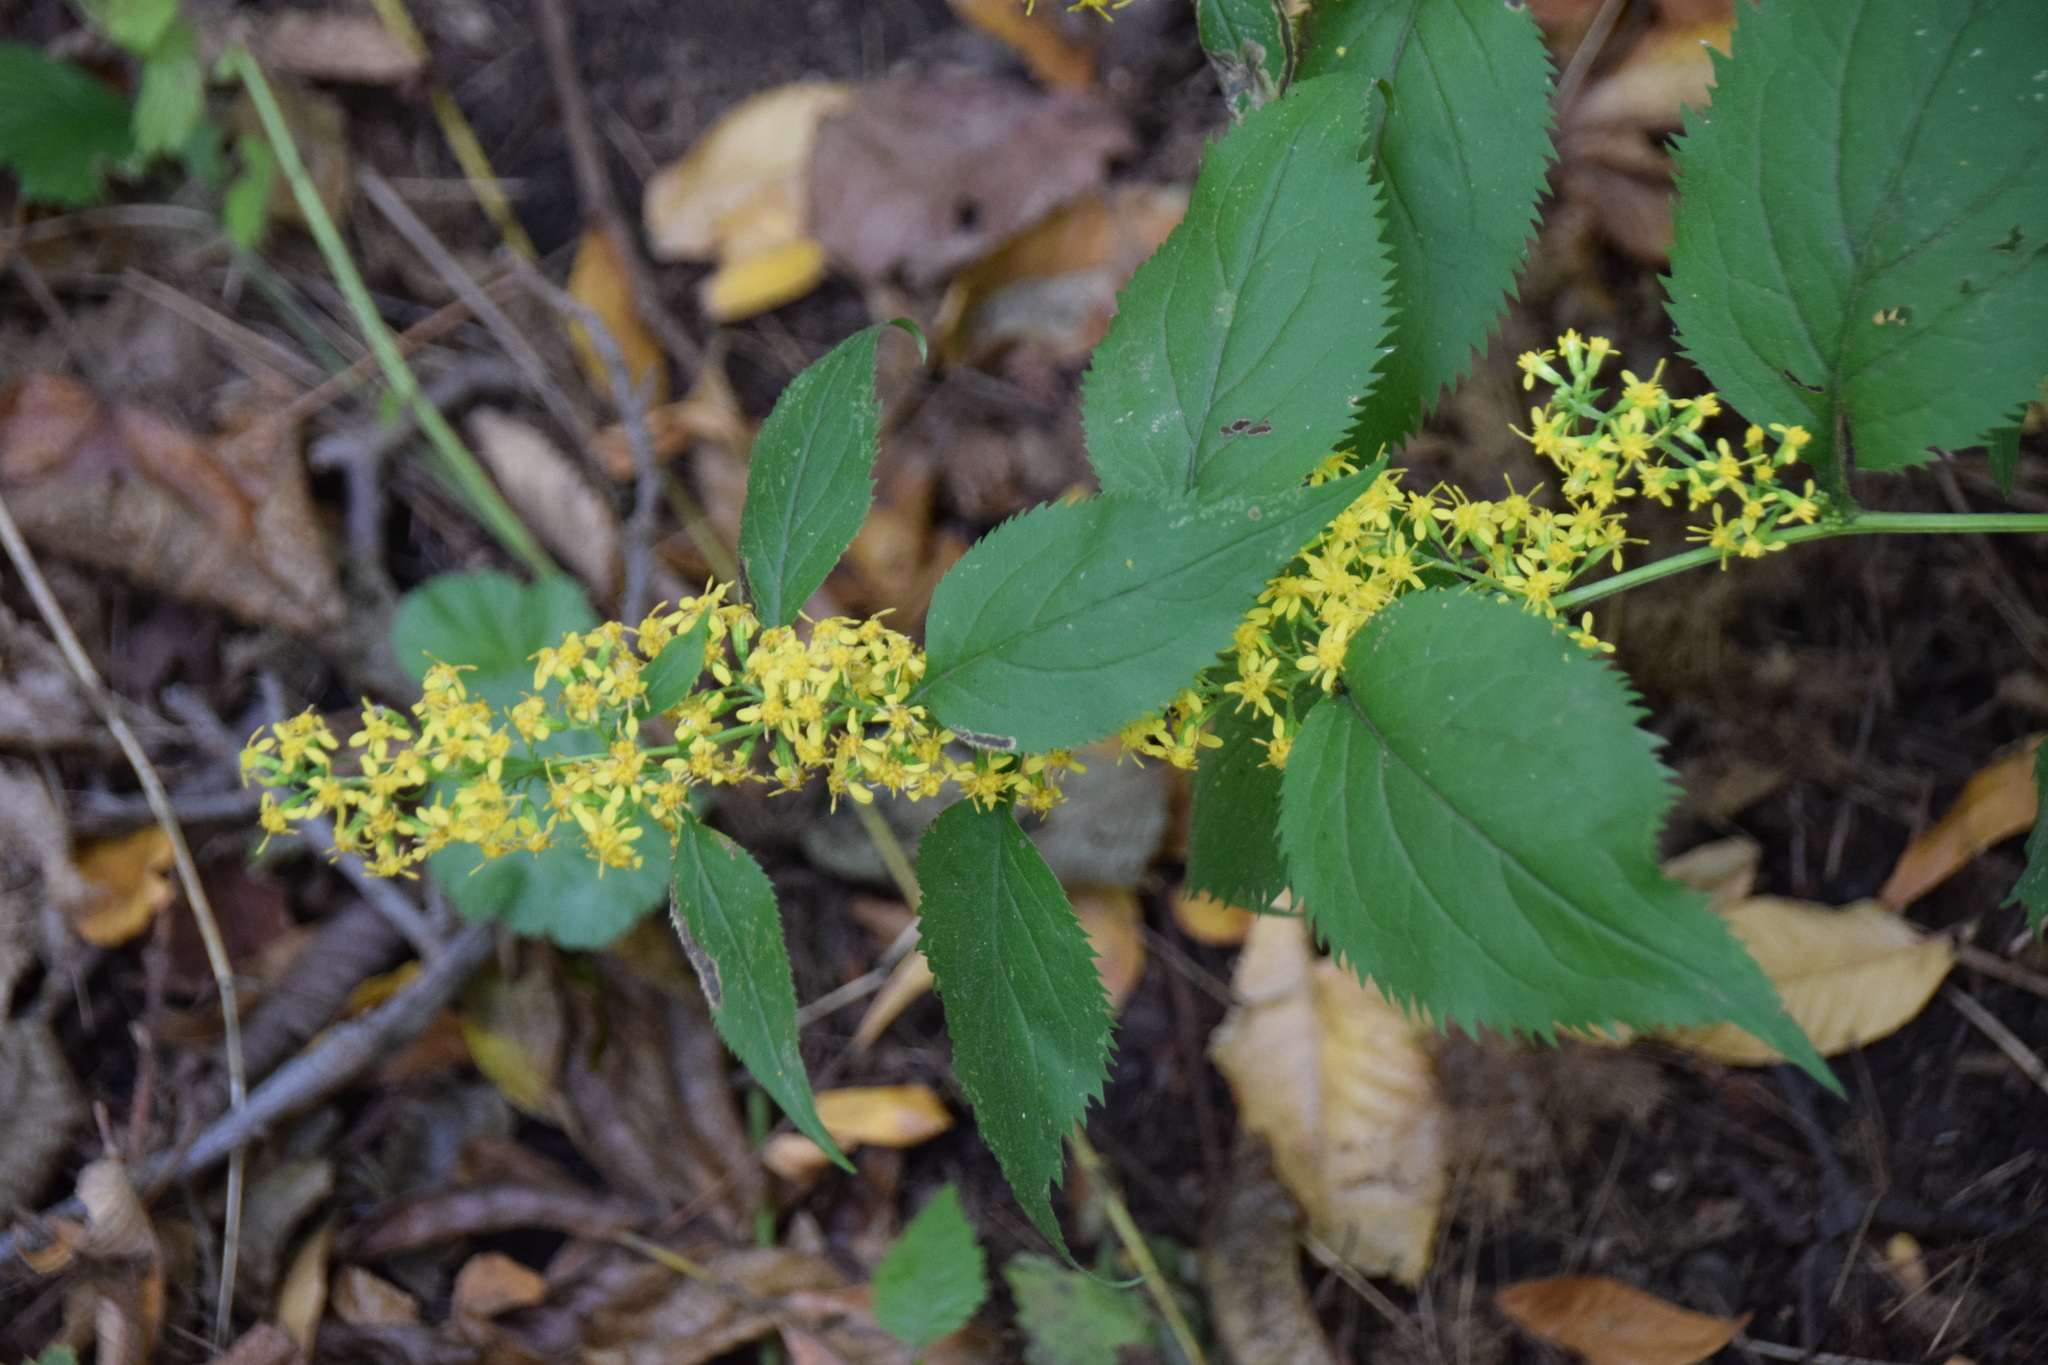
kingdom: Plantae
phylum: Tracheophyta
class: Magnoliopsida
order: Asterales
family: Asteraceae
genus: Solidago
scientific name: Solidago flexicaulis
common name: Zig-zag goldenrod
